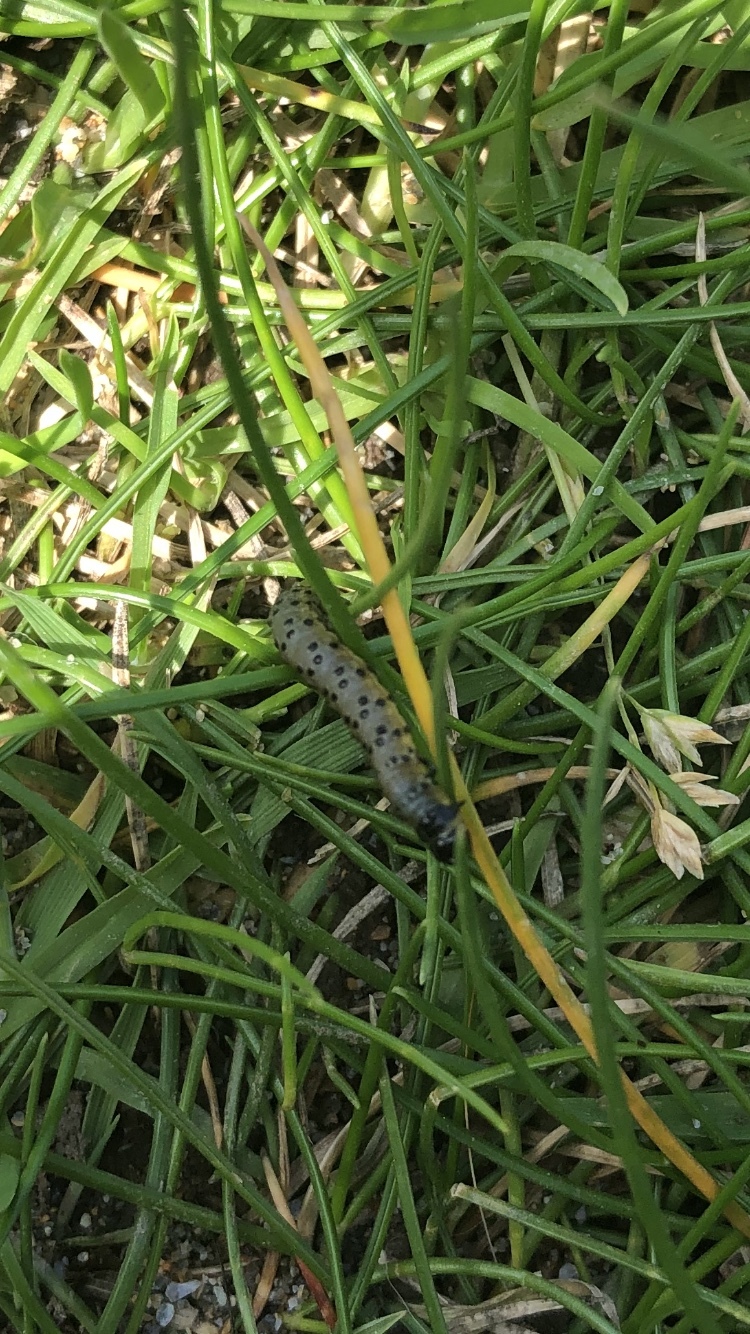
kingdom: Animalia
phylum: Arthropoda
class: Insecta
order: Lepidoptera
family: Cossidae
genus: Zeuzera
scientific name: Zeuzera pyrina
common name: Leopard moth
